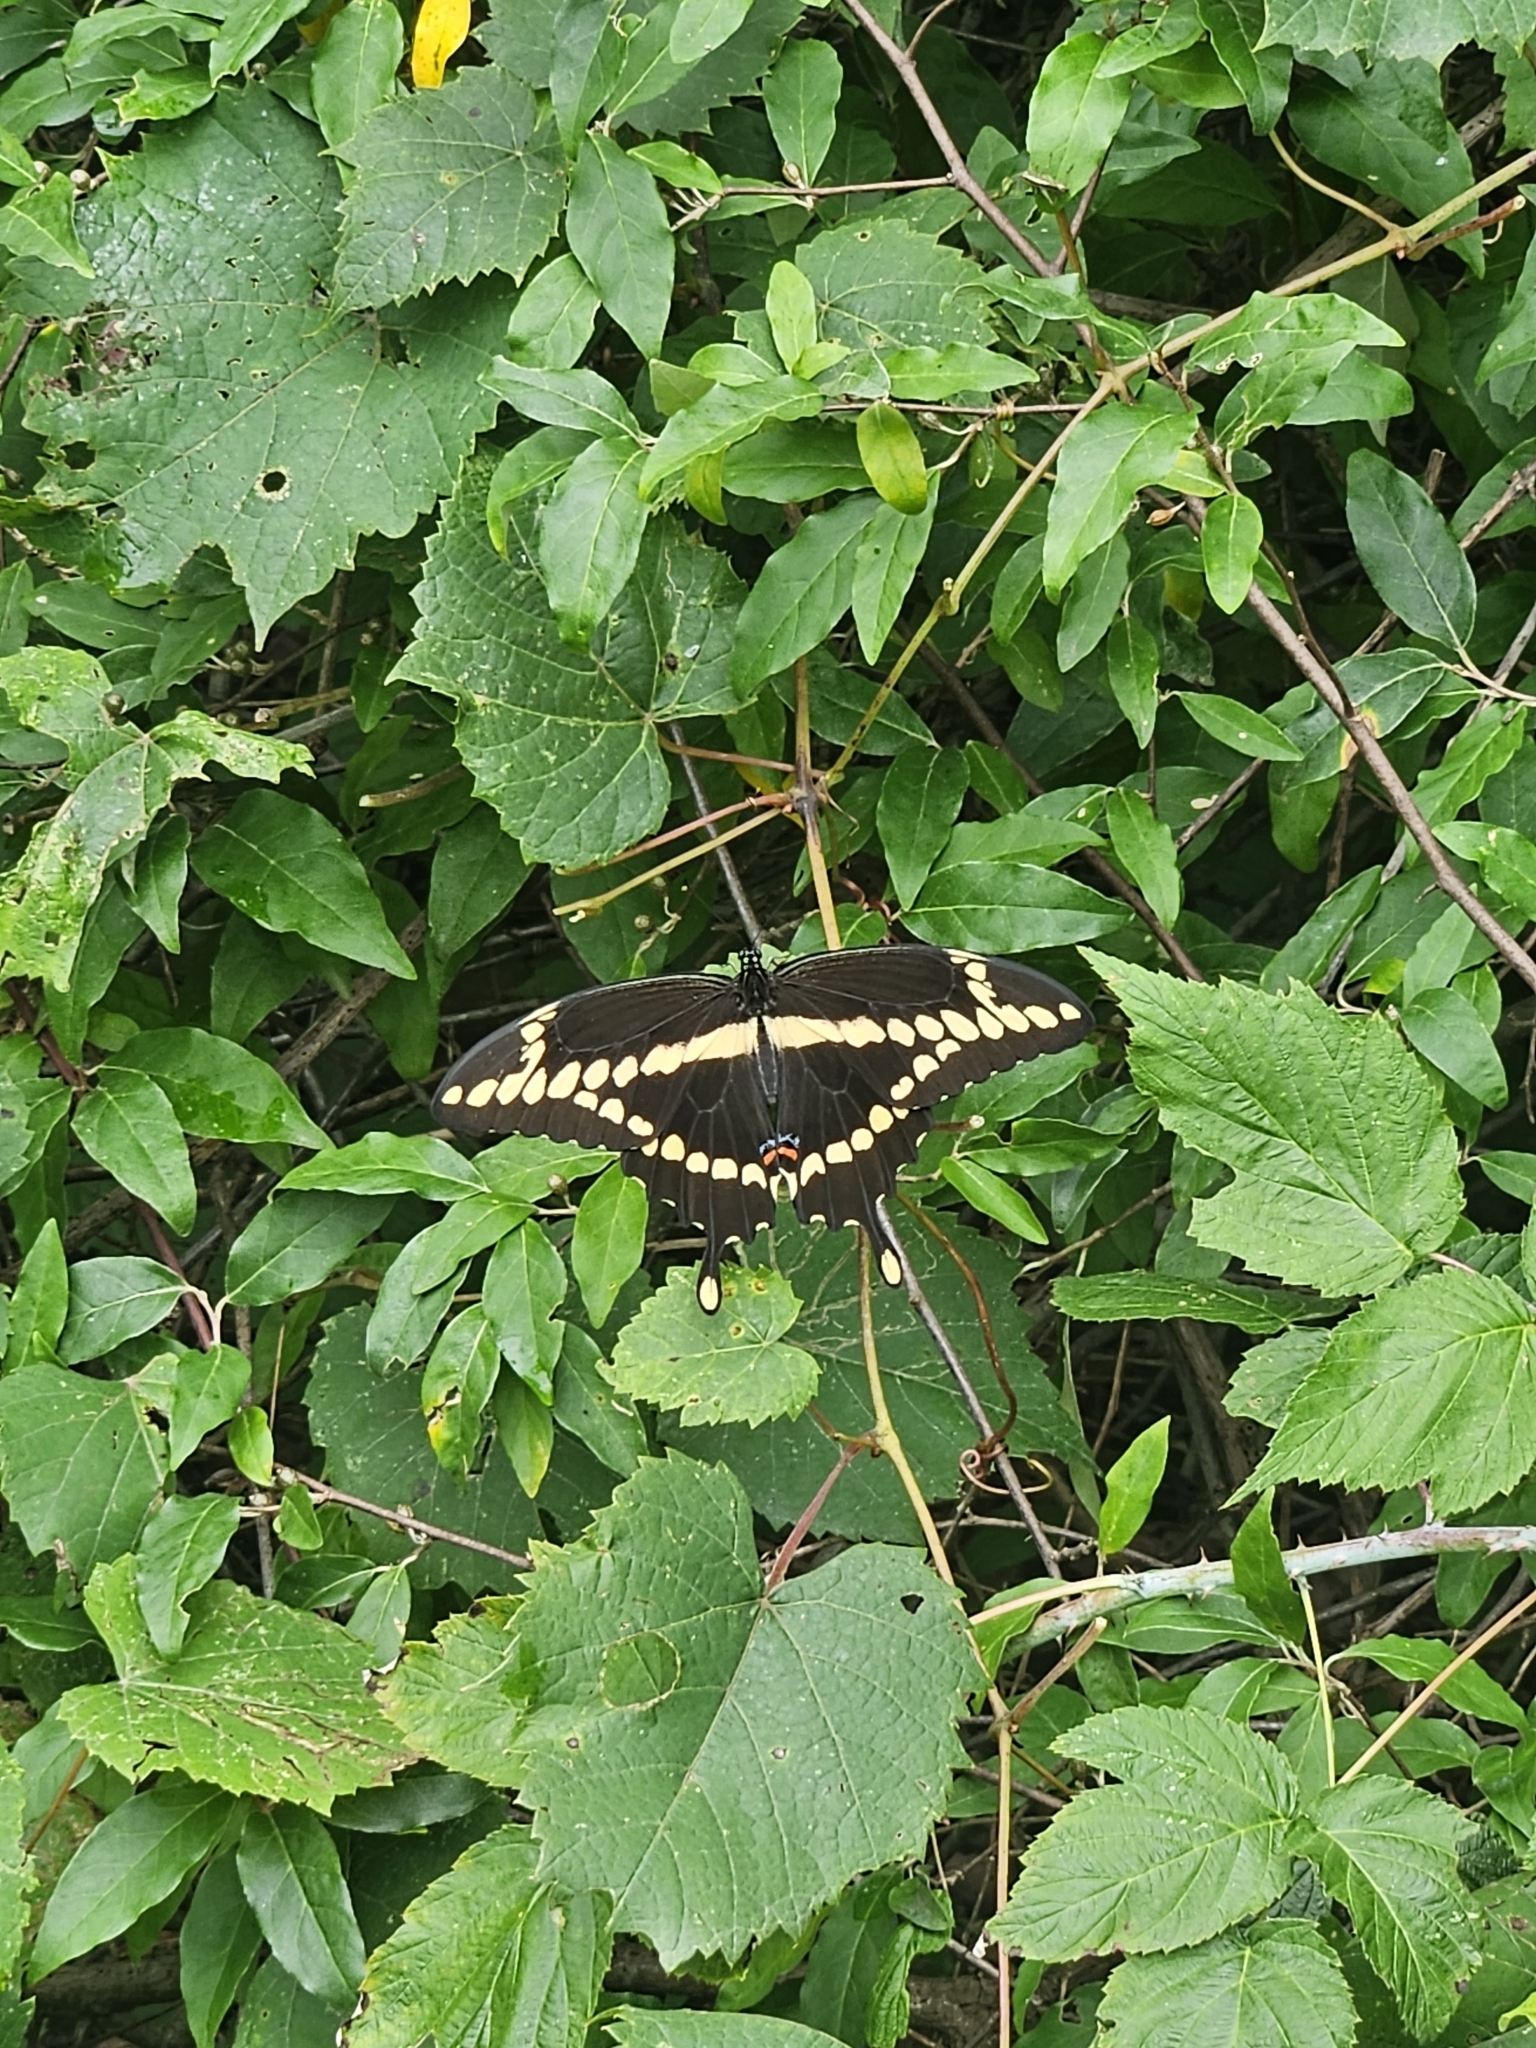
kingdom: Animalia
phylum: Arthropoda
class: Insecta
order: Lepidoptera
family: Papilionidae
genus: Papilio
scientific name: Papilio cresphontes
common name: Giant swallowtail
